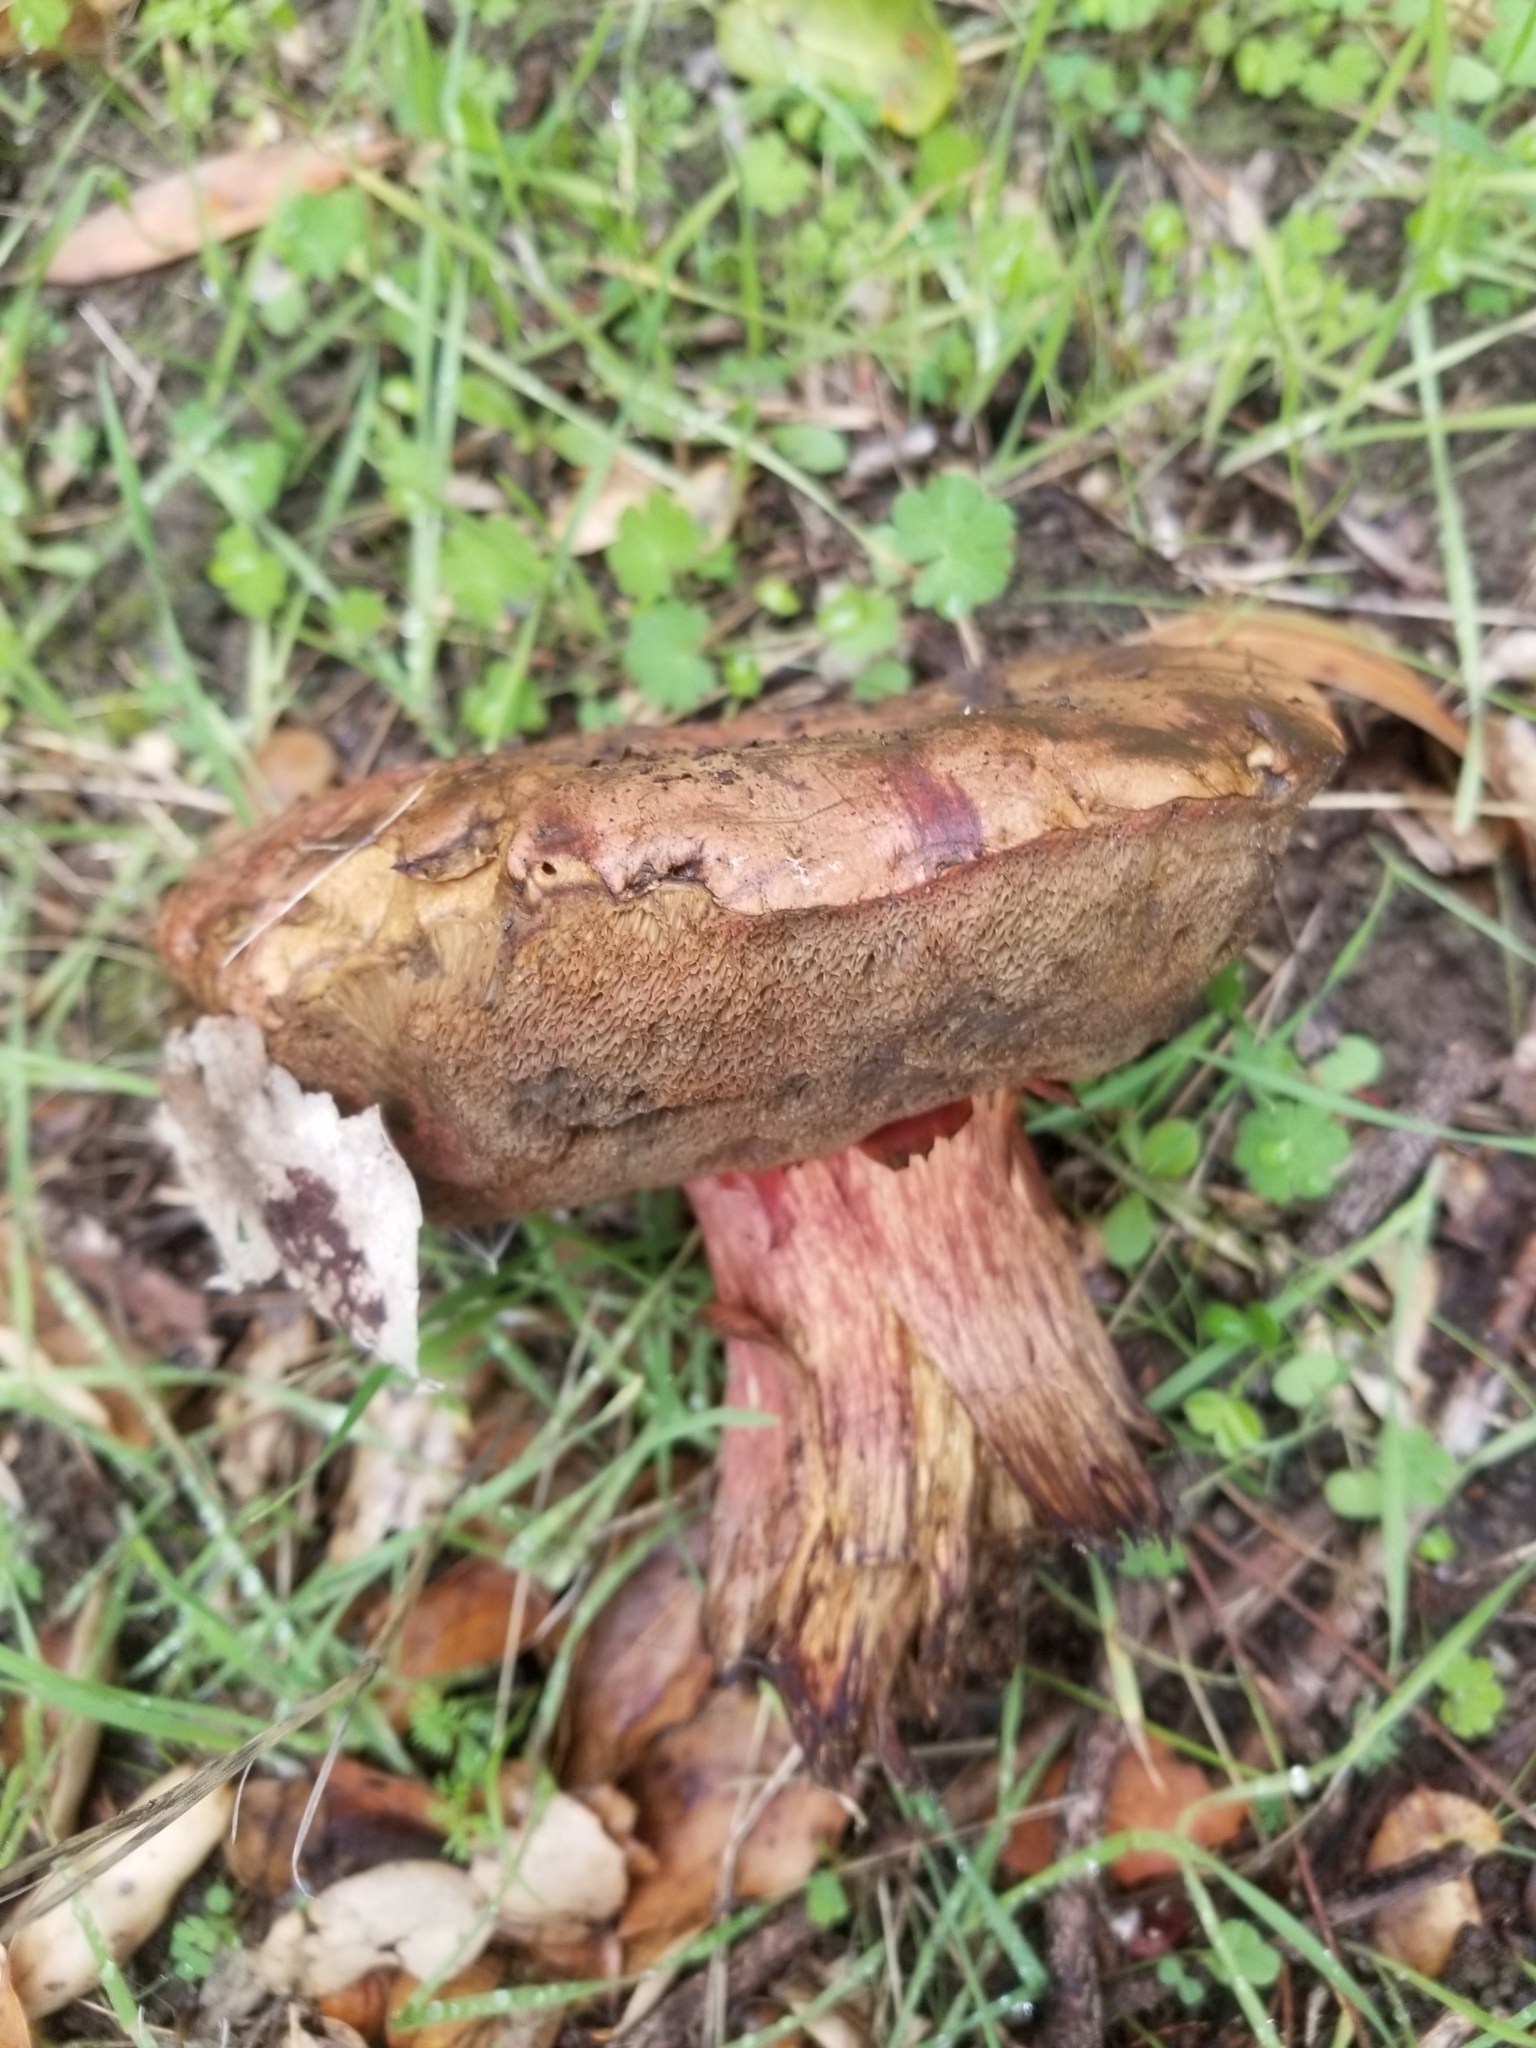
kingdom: Fungi
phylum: Basidiomycota
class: Agaricomycetes
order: Boletales
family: Boletaceae
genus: Suillellus
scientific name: Suillellus amygdalinus
